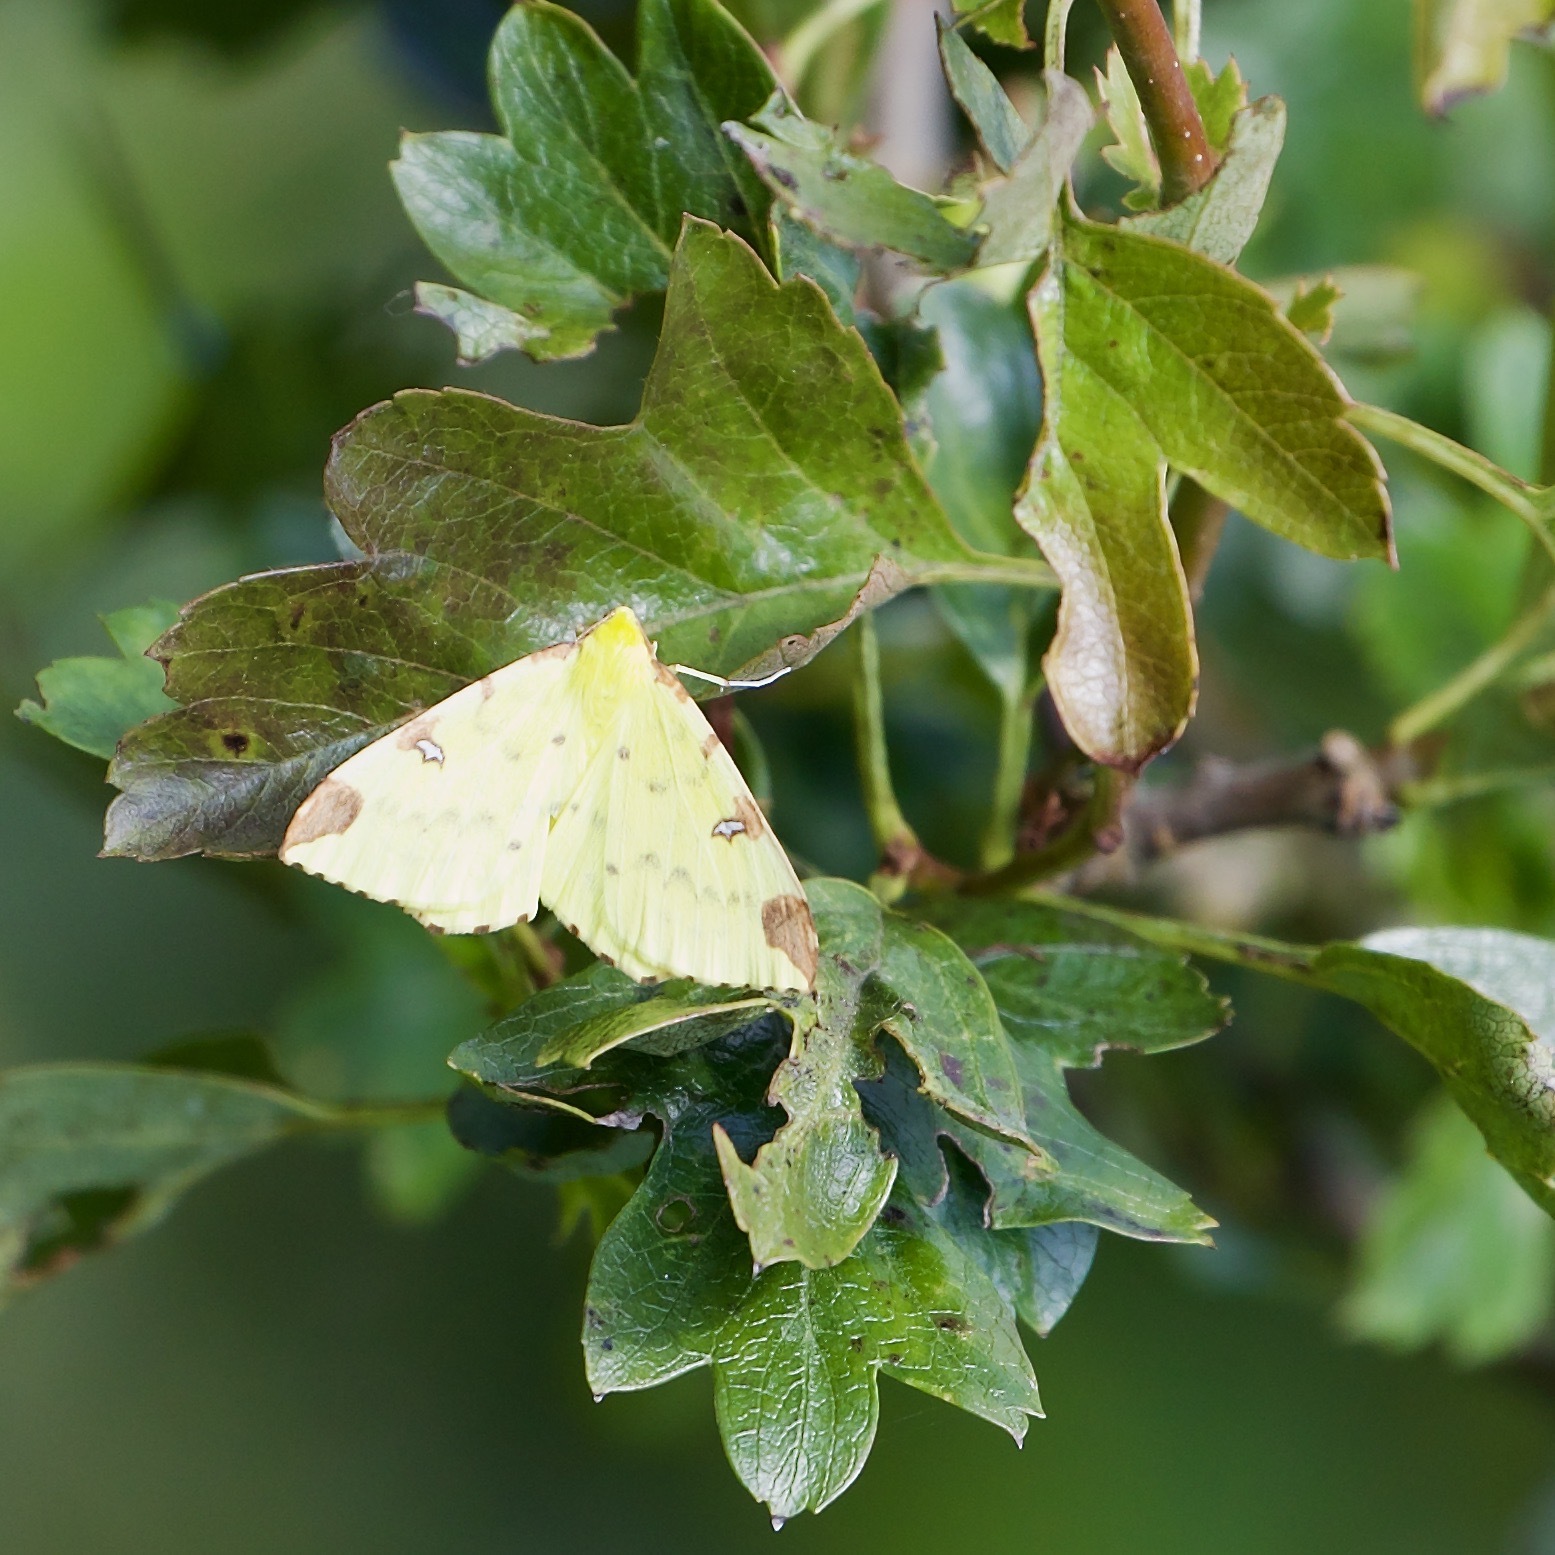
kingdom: Animalia
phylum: Arthropoda
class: Insecta
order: Lepidoptera
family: Geometridae
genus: Opisthograptis
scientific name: Opisthograptis luteolata
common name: Brimstone moth
